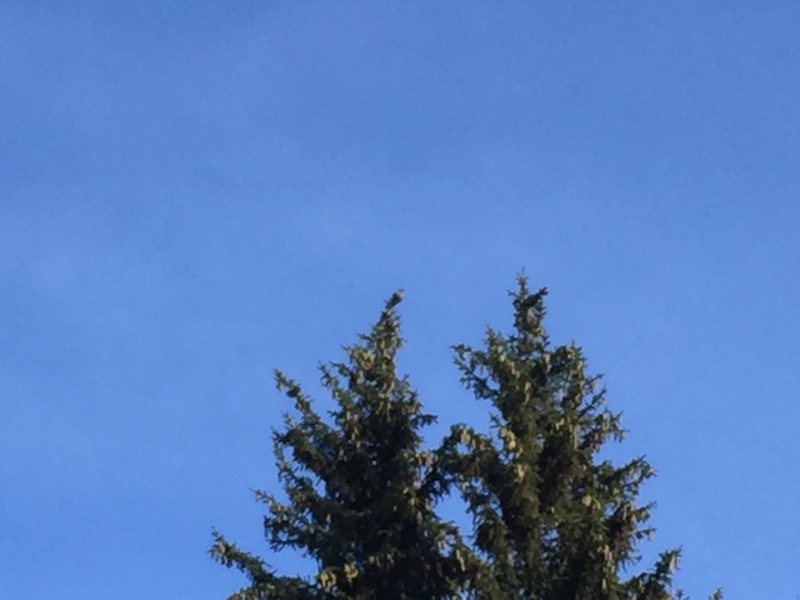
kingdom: Animalia
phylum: Chordata
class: Aves
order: Passeriformes
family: Corvidae
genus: Nucifraga
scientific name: Nucifraga caryocatactes
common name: Spotted nutcracker
